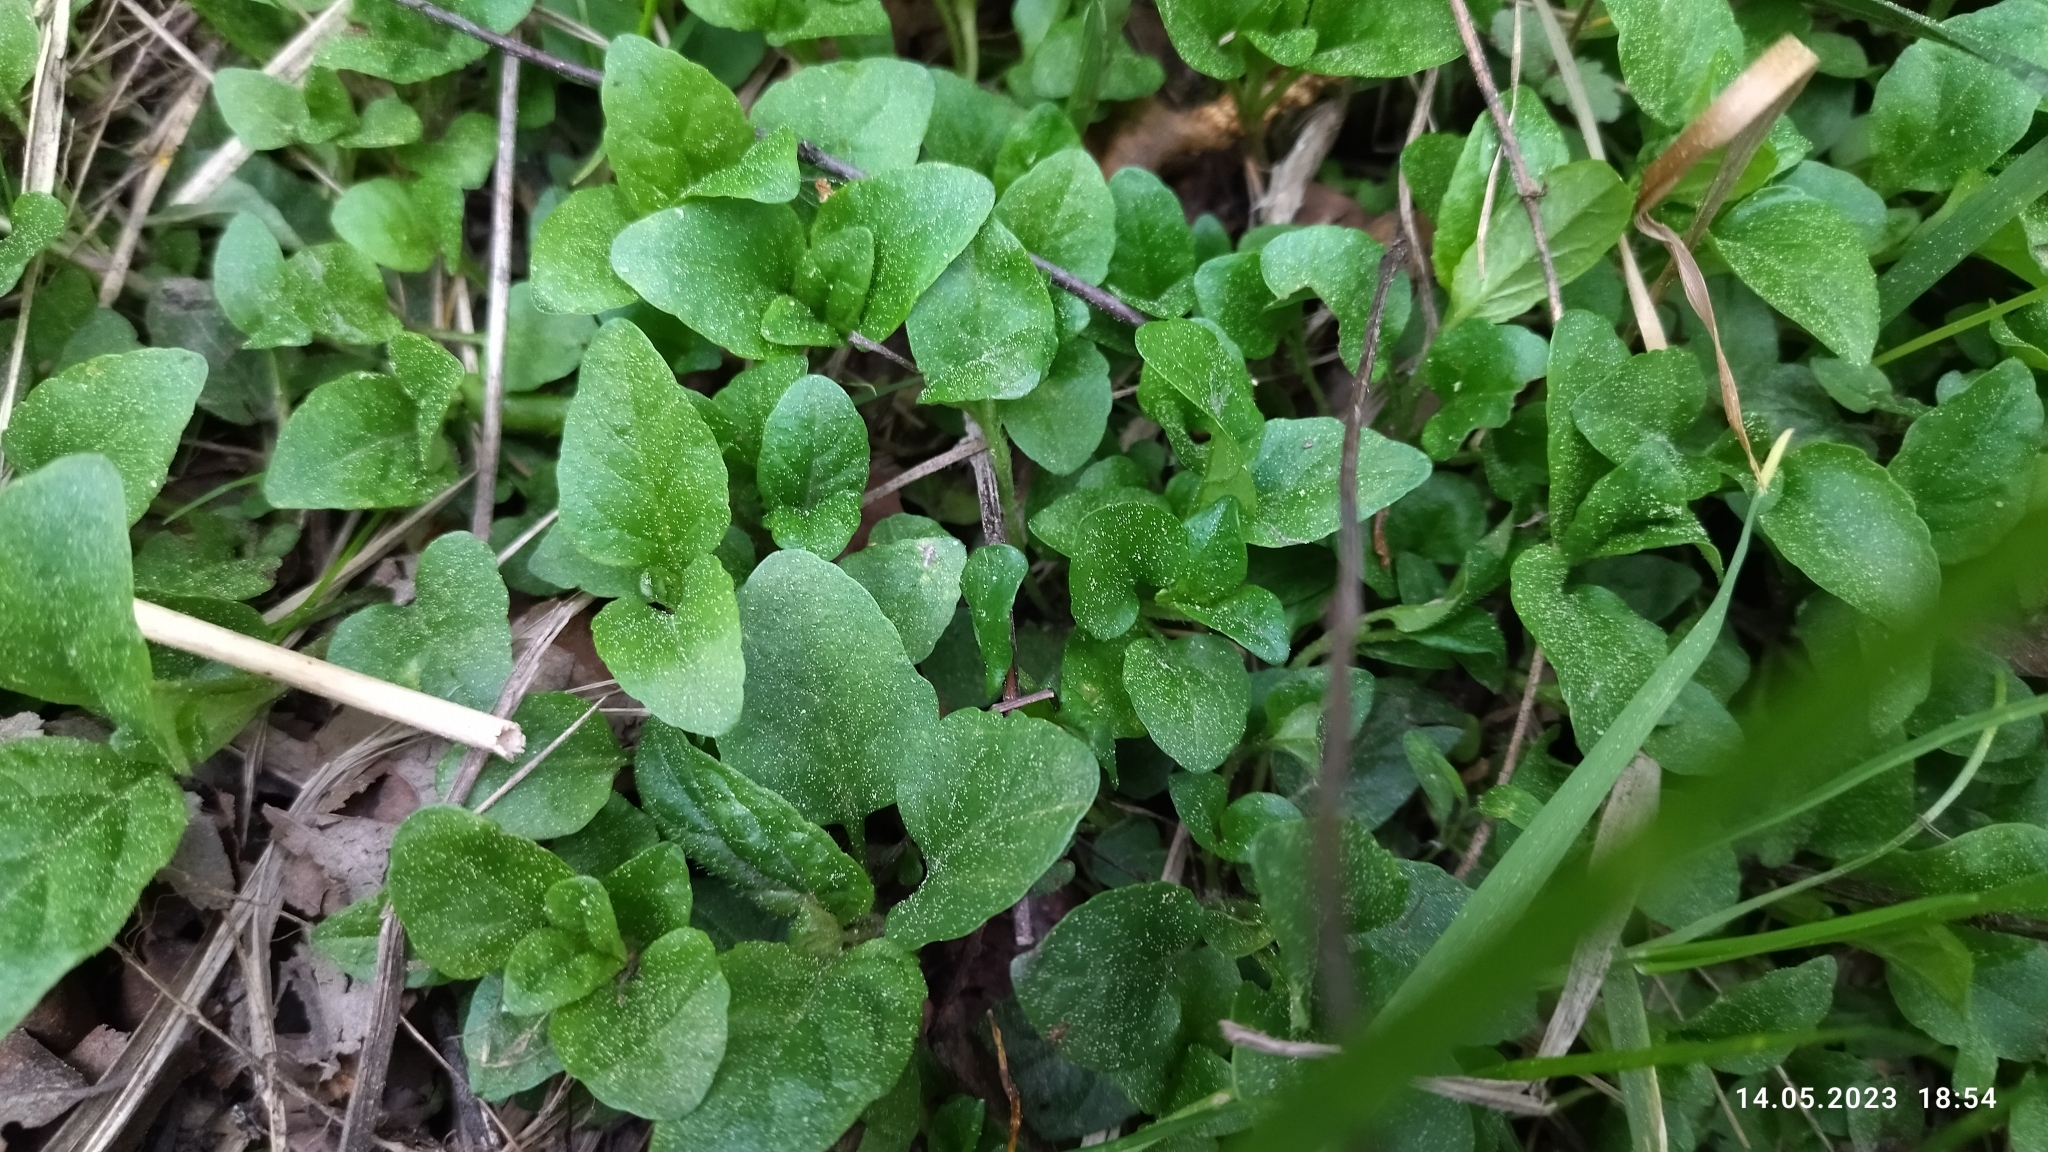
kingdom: Plantae
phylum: Tracheophyta
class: Magnoliopsida
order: Lamiales
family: Plantaginaceae
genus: Veronica
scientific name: Veronica serpyllifolia
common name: Thyme-leaved speedwell
